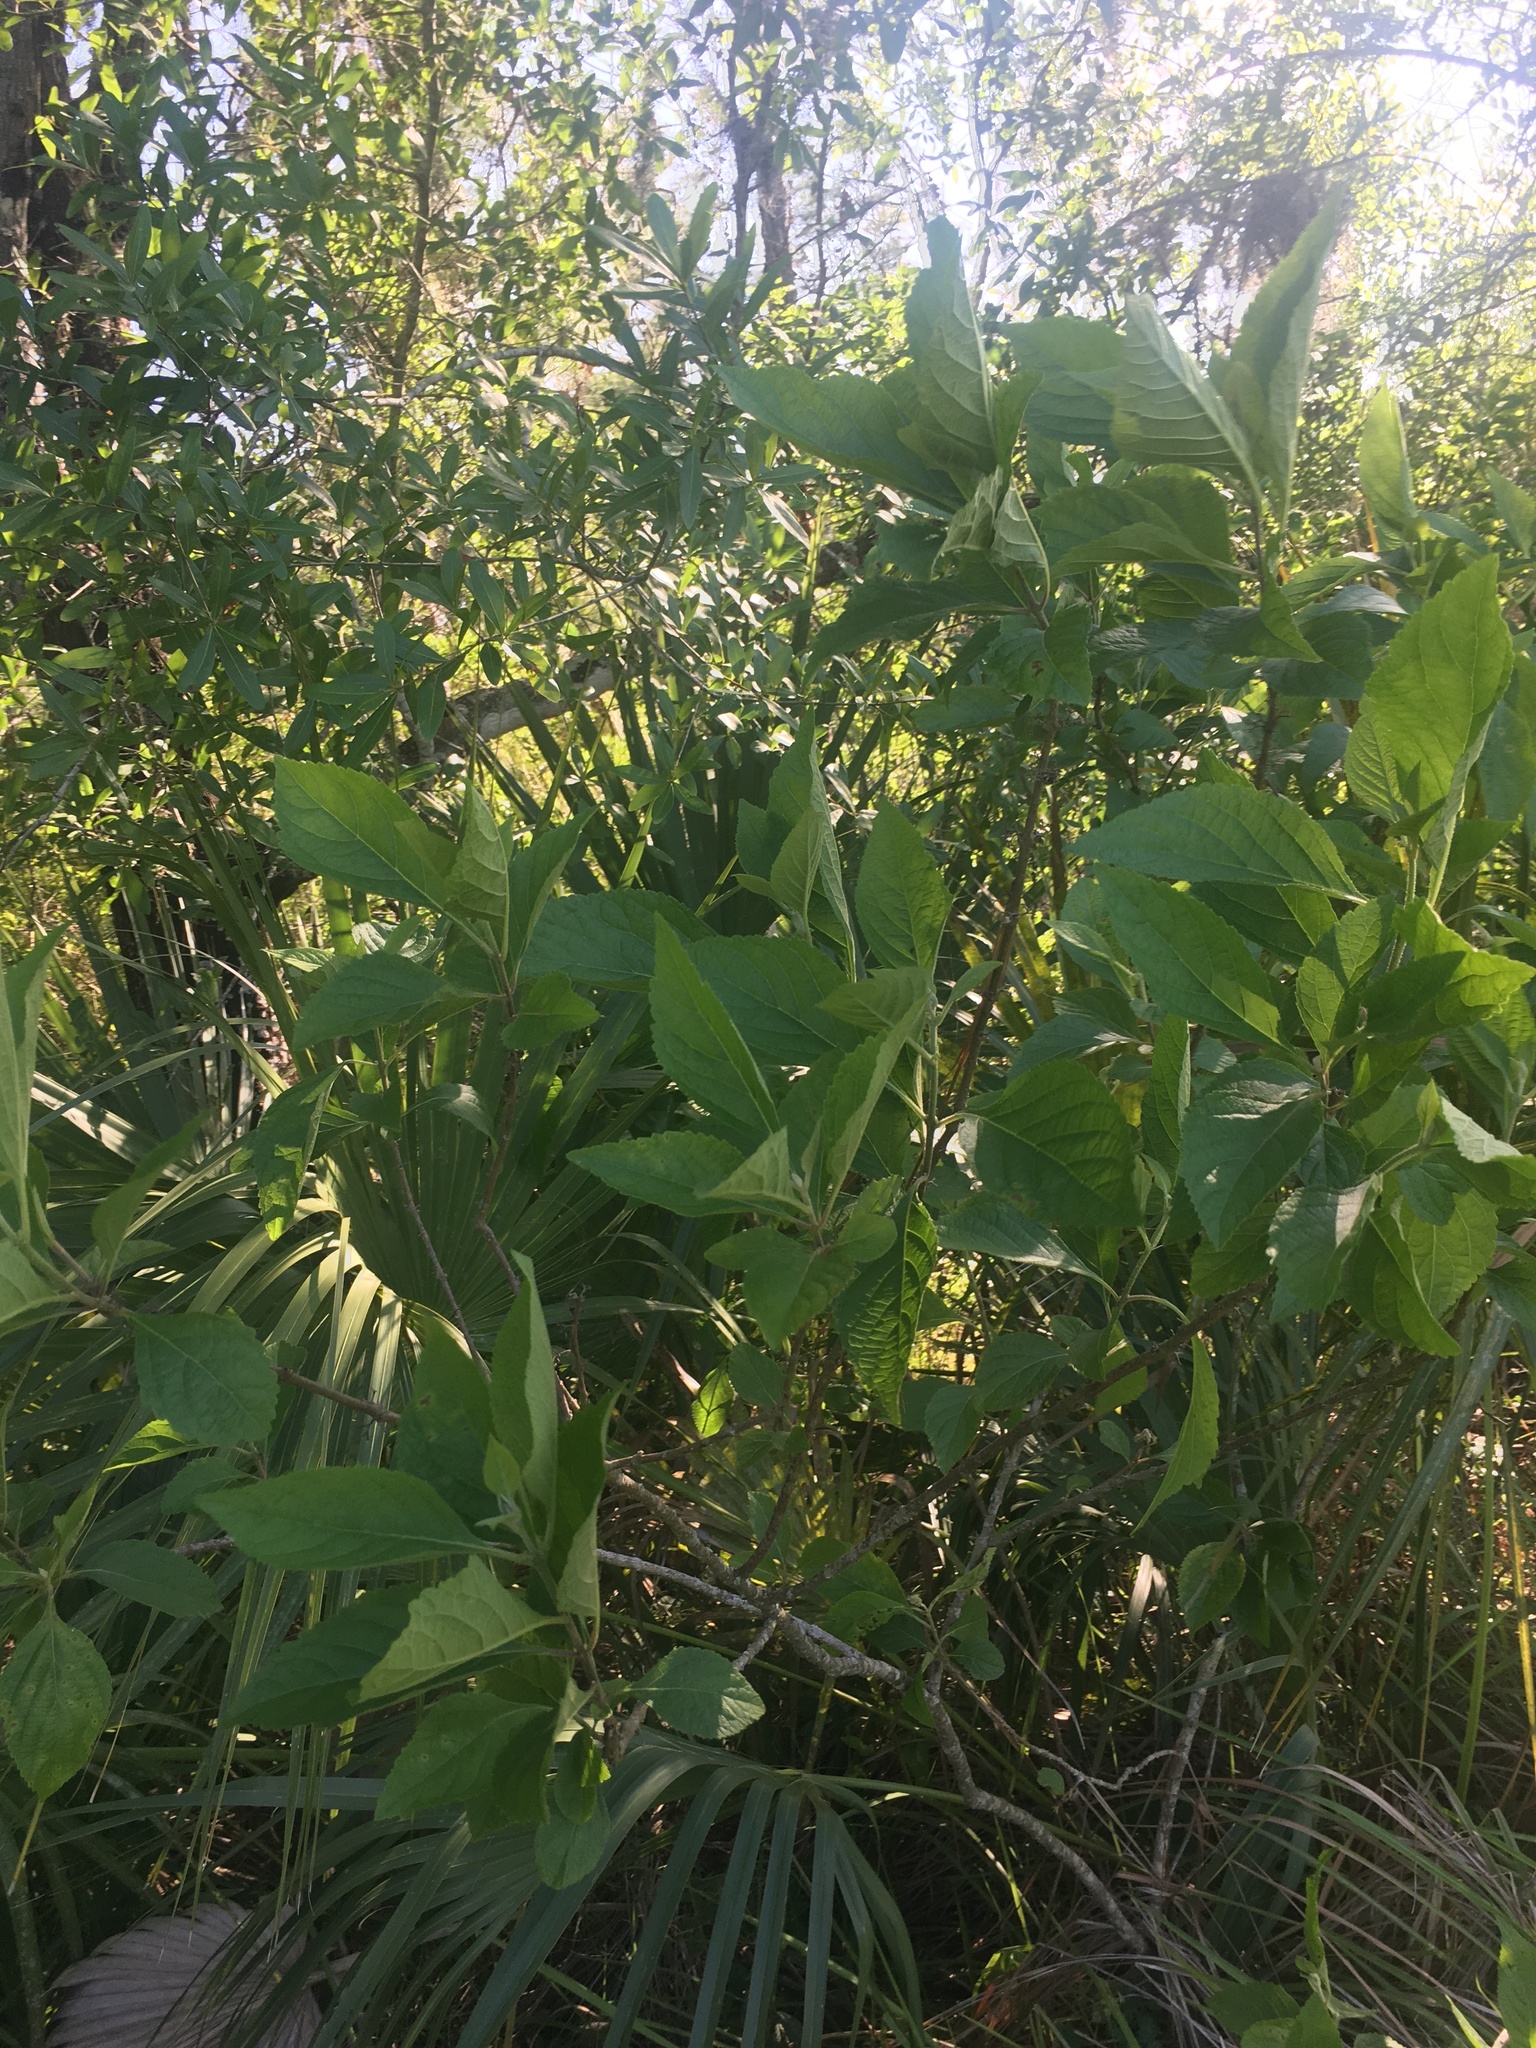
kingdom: Plantae
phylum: Tracheophyta
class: Magnoliopsida
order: Lamiales
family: Lamiaceae
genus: Callicarpa
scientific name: Callicarpa americana
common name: American beautyberry
